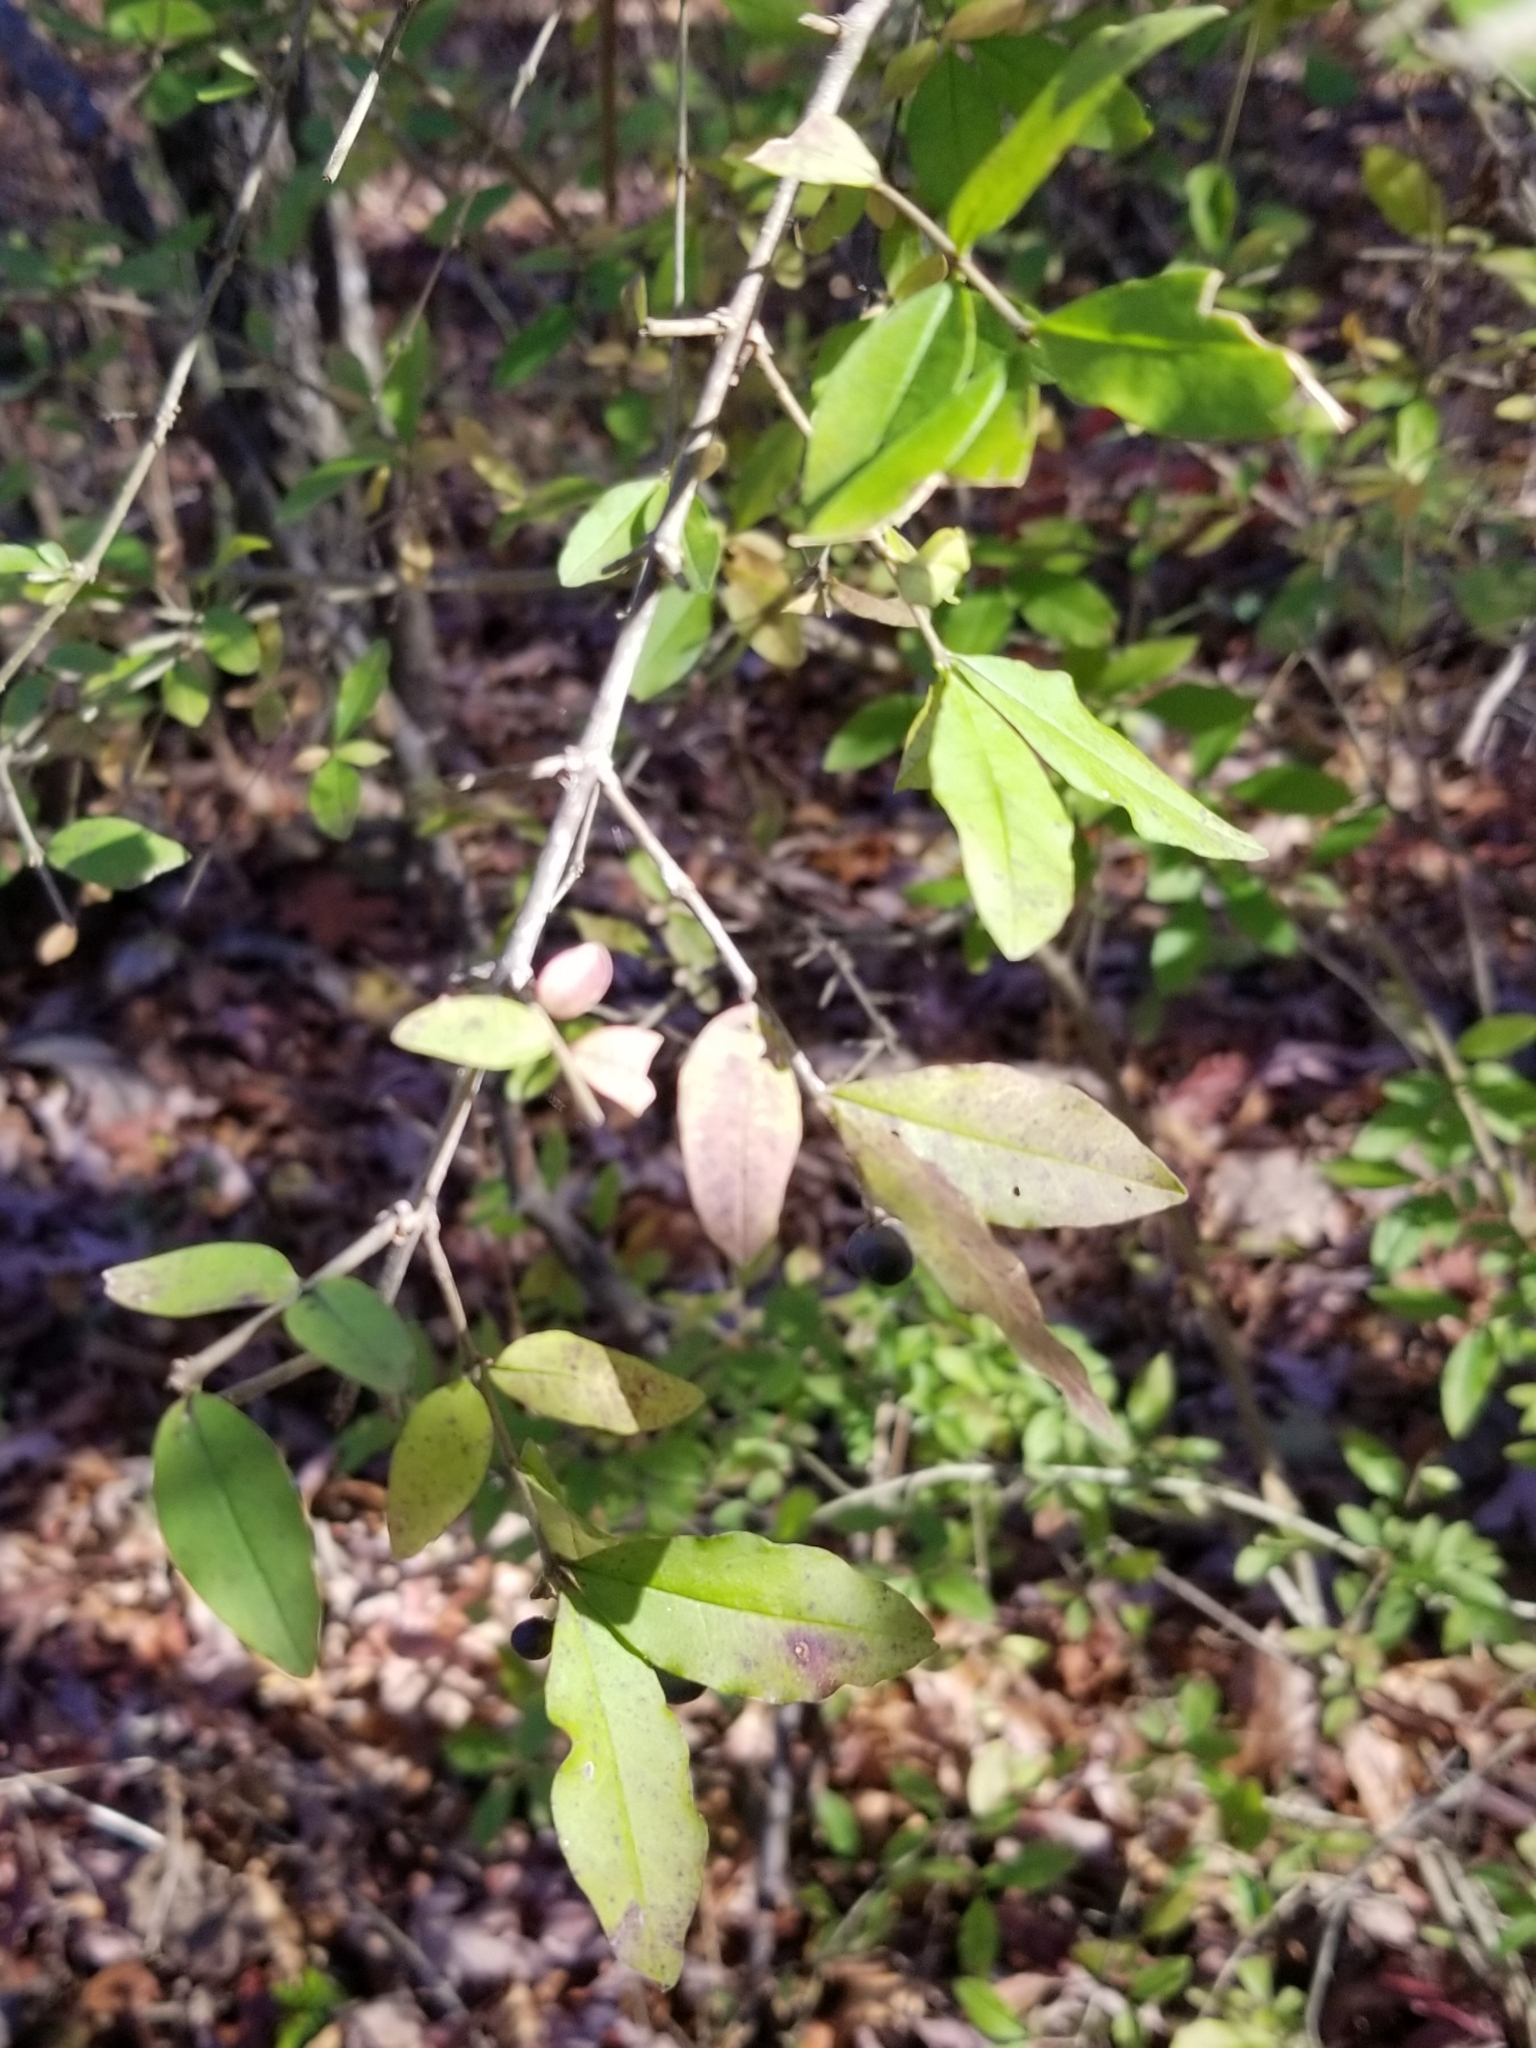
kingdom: Plantae
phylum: Tracheophyta
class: Magnoliopsida
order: Lamiales
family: Oleaceae
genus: Ligustrum
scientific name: Ligustrum obtusifolium
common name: Border privet
